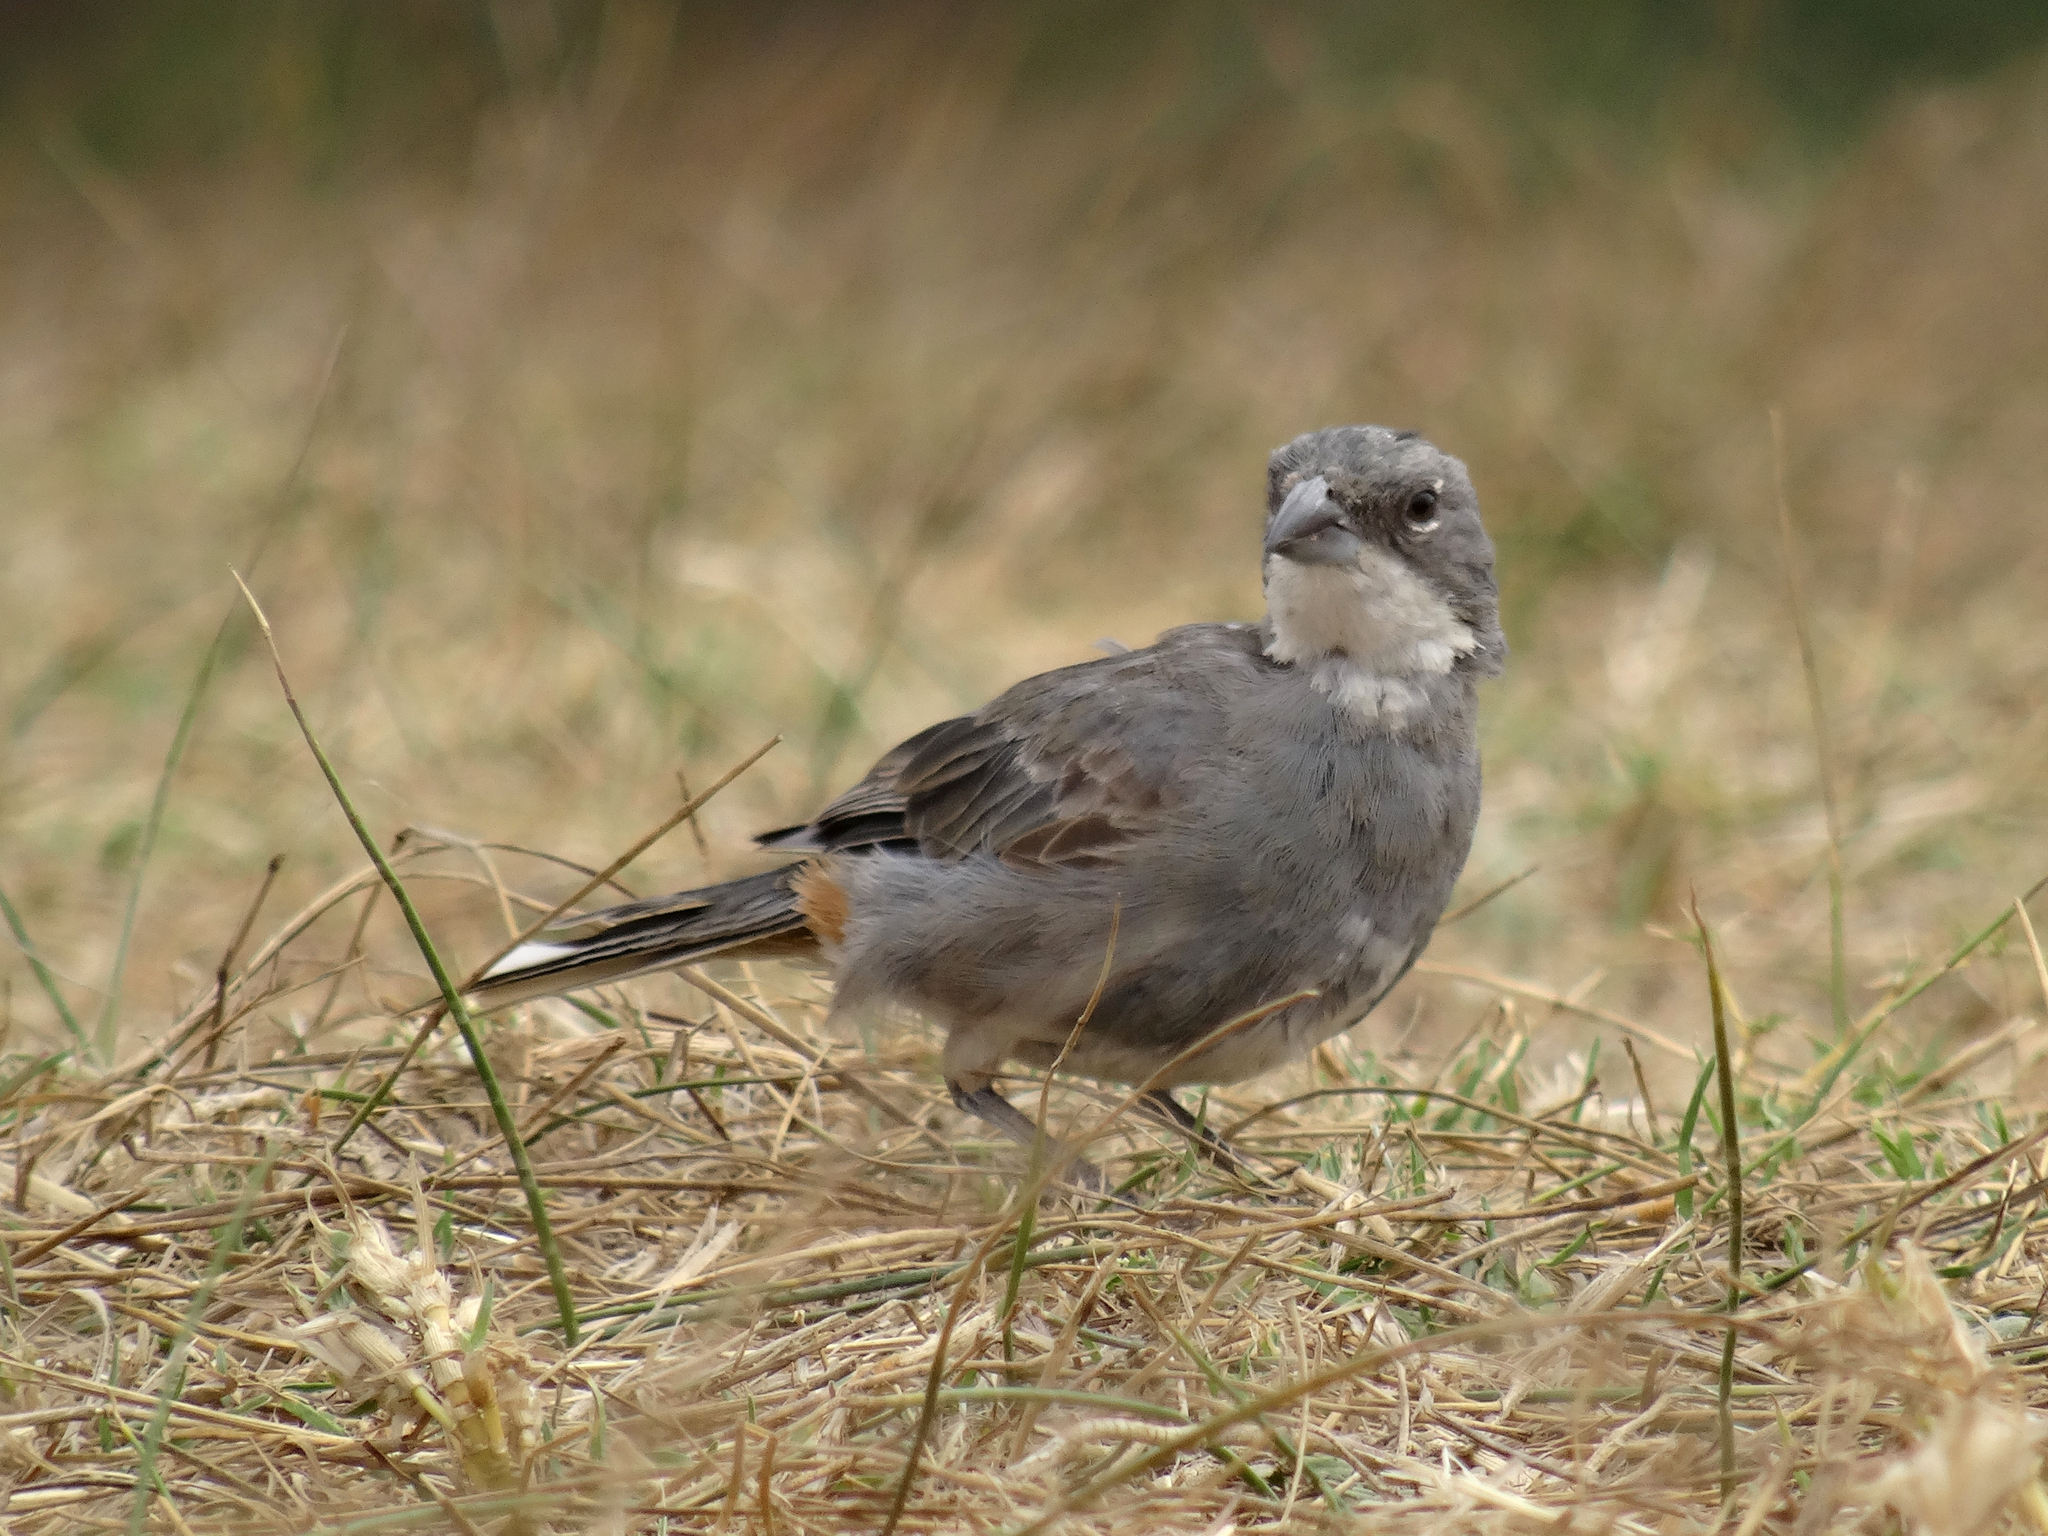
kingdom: Animalia
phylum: Chordata
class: Aves
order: Passeriformes
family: Thraupidae
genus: Diuca
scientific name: Diuca diuca
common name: Common diuca finch
